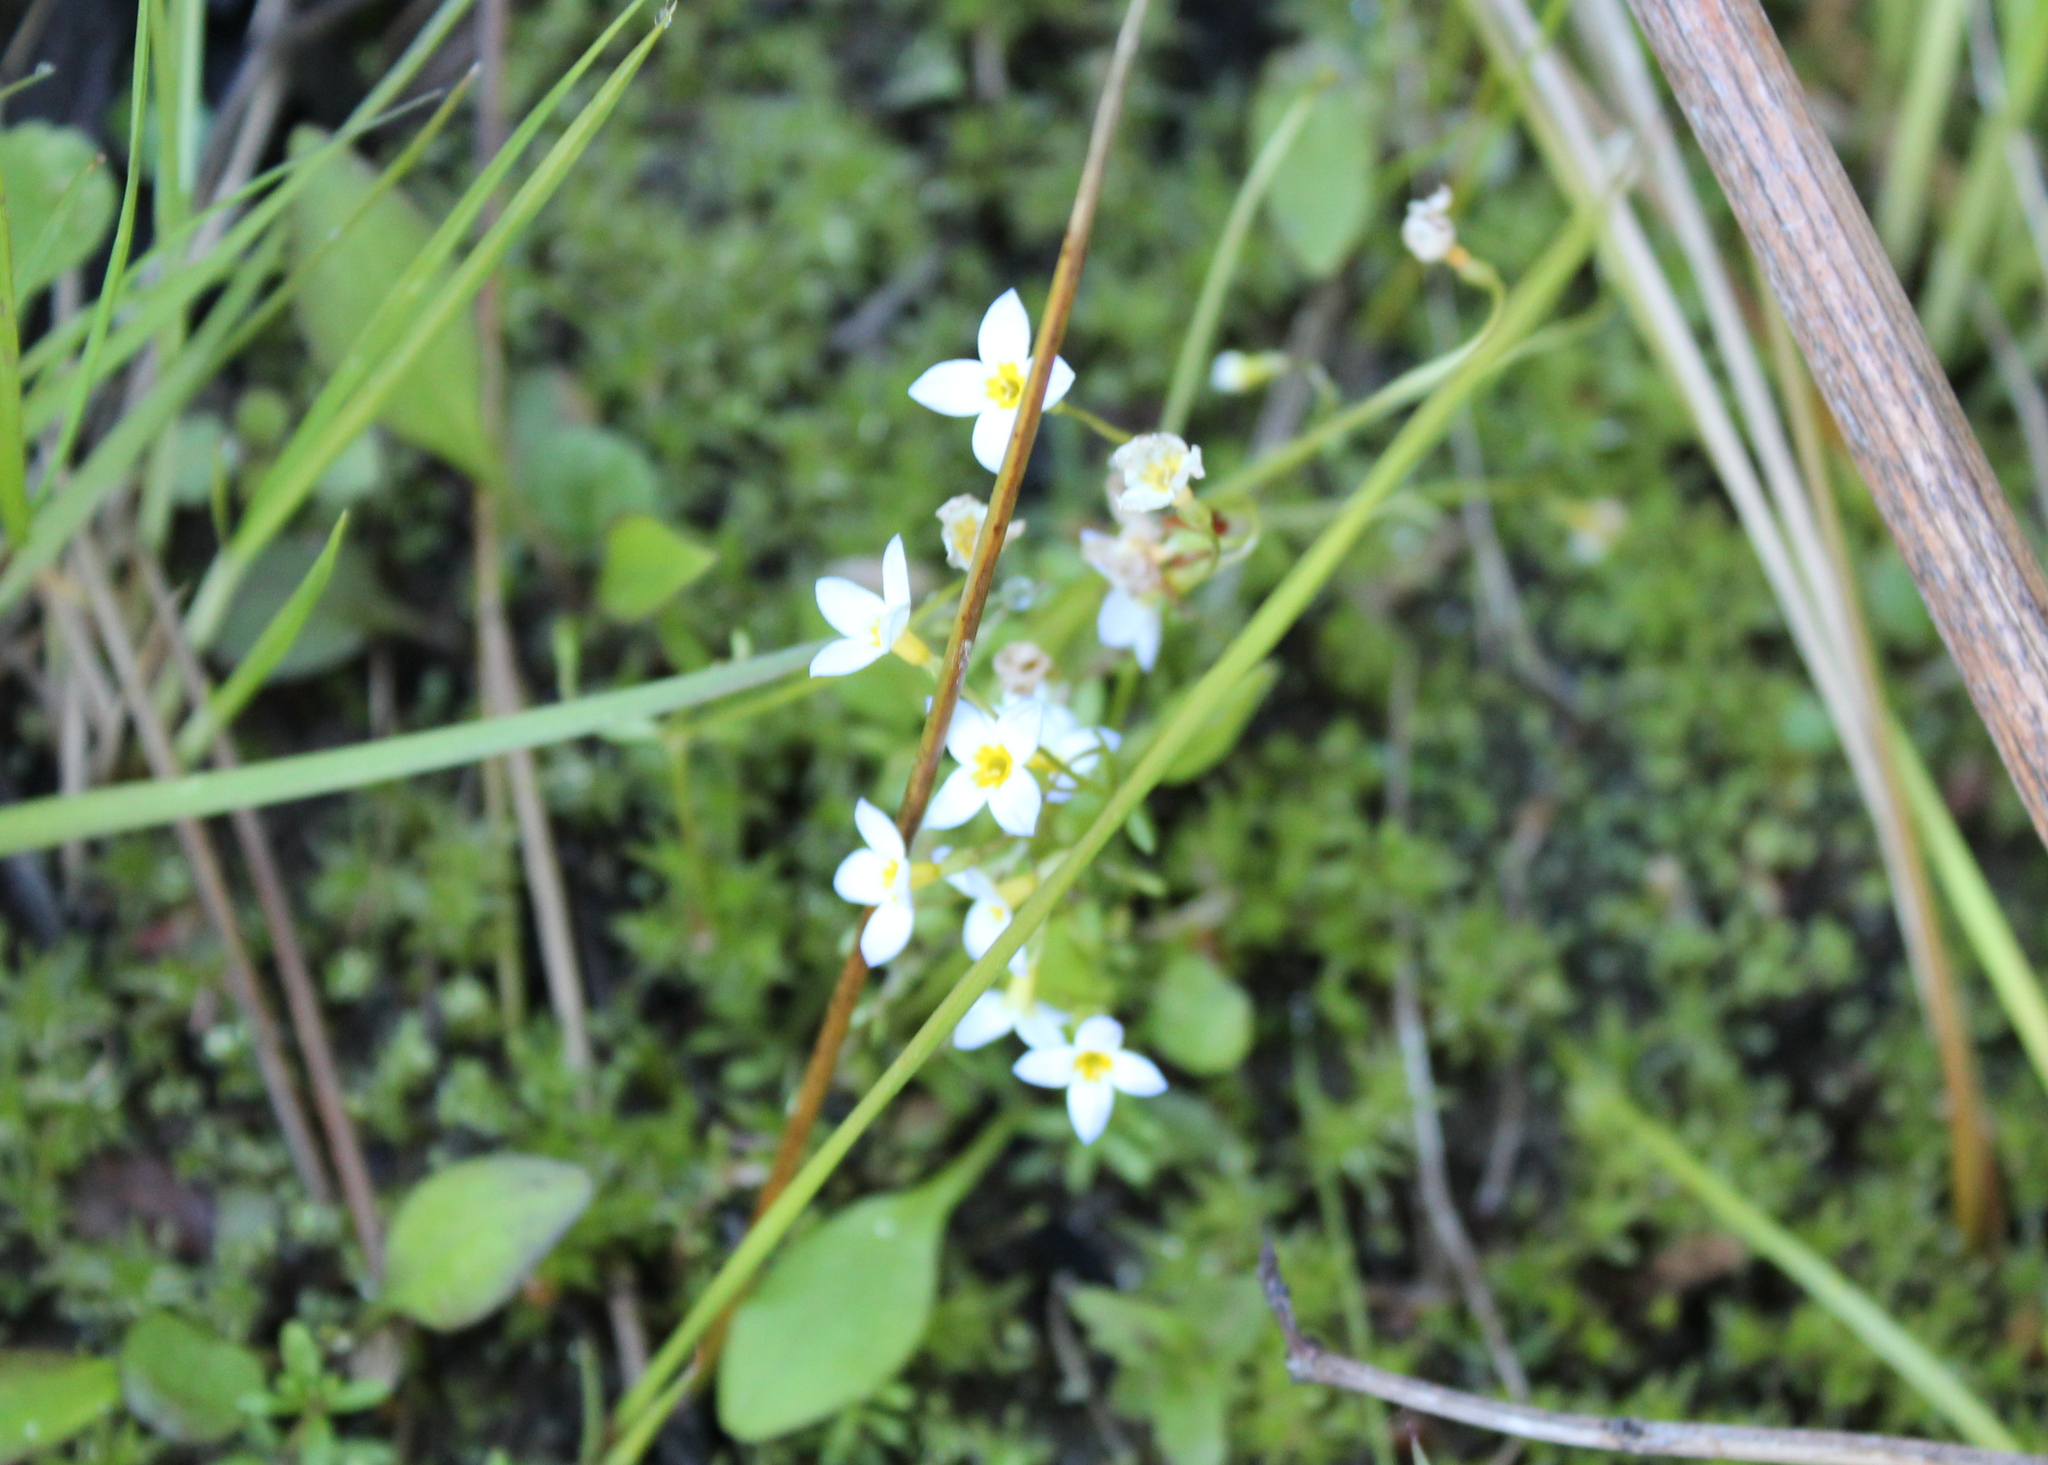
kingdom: Plantae
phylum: Tracheophyta
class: Magnoliopsida
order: Gentianales
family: Rubiaceae
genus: Houstonia
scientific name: Houstonia caerulea
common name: Bluets
